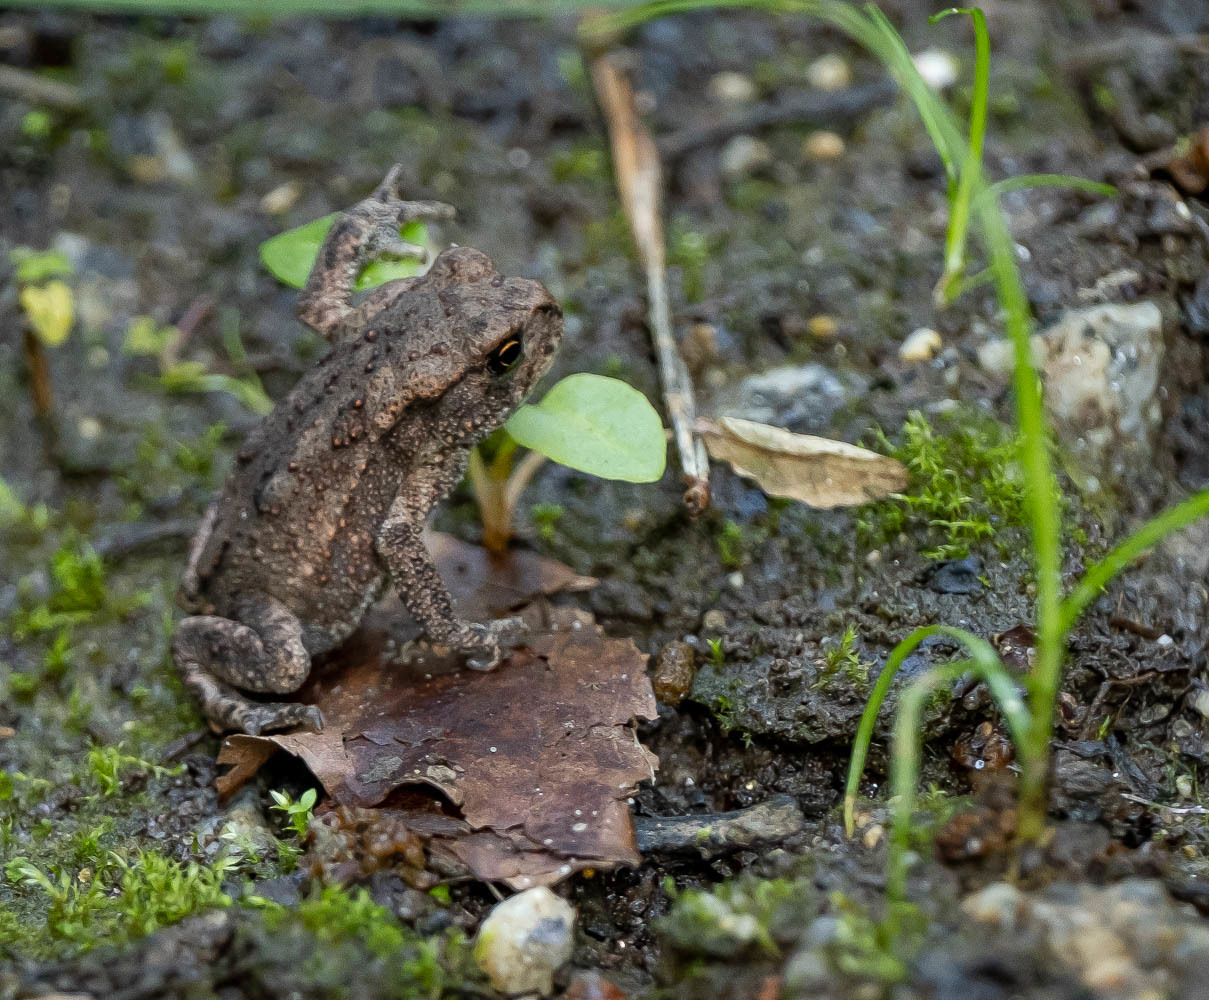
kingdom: Animalia
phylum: Chordata
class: Amphibia
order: Anura
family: Bufonidae
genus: Bufo
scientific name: Bufo bufo
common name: Common toad
